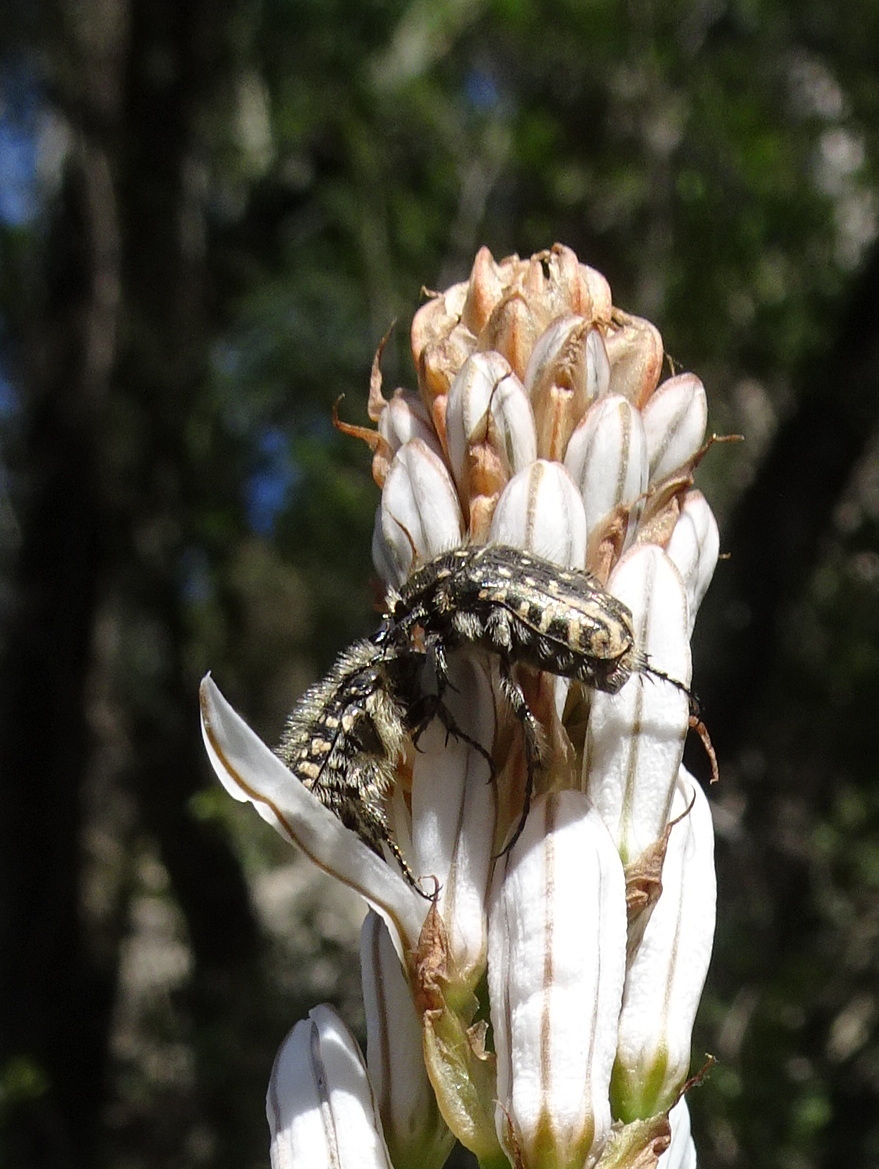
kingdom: Animalia
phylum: Arthropoda
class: Insecta
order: Coleoptera
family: Scarabaeidae
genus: Oxythyrea
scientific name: Oxythyrea funesta
